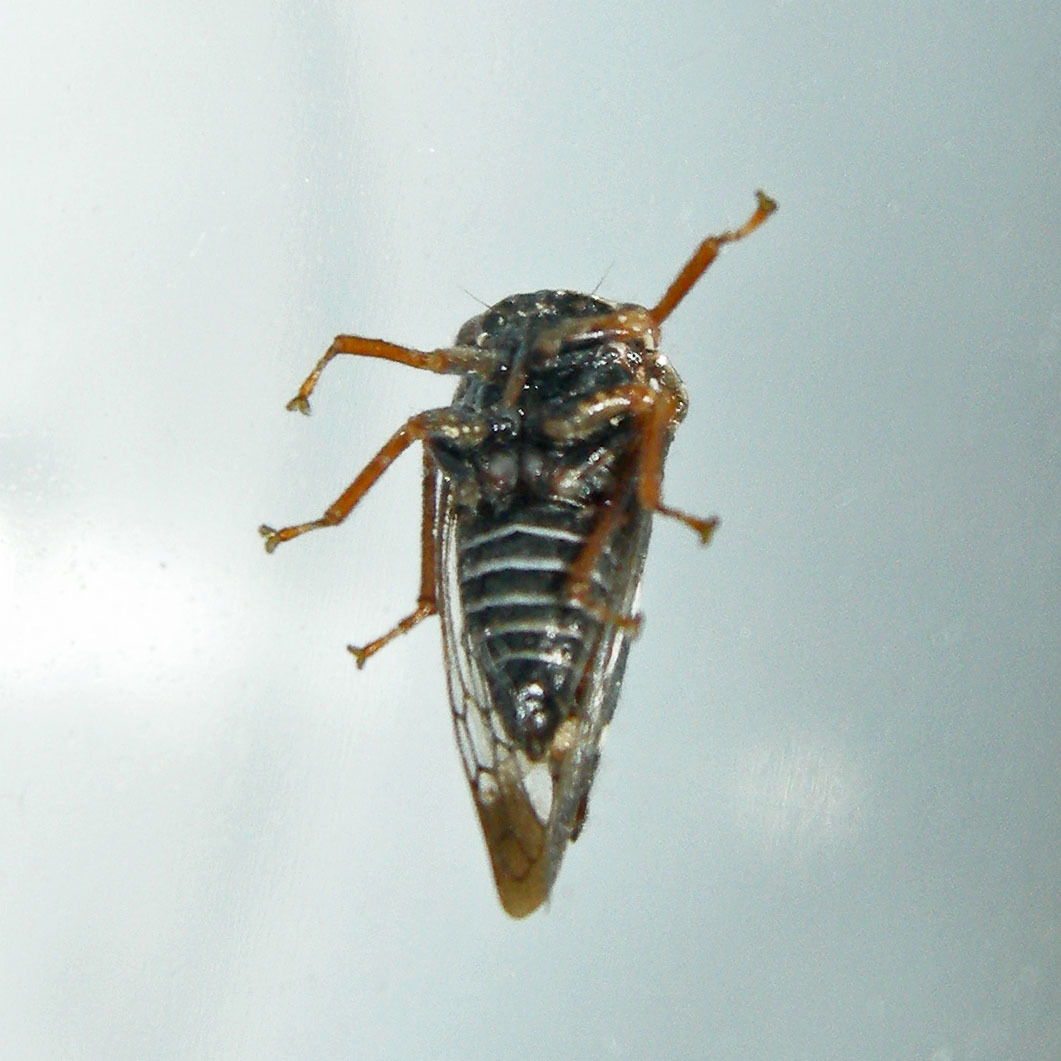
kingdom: Animalia
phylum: Arthropoda
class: Insecta
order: Hemiptera
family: Membracidae
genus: Cyrtolobus
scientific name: Cyrtolobus tuberosa
